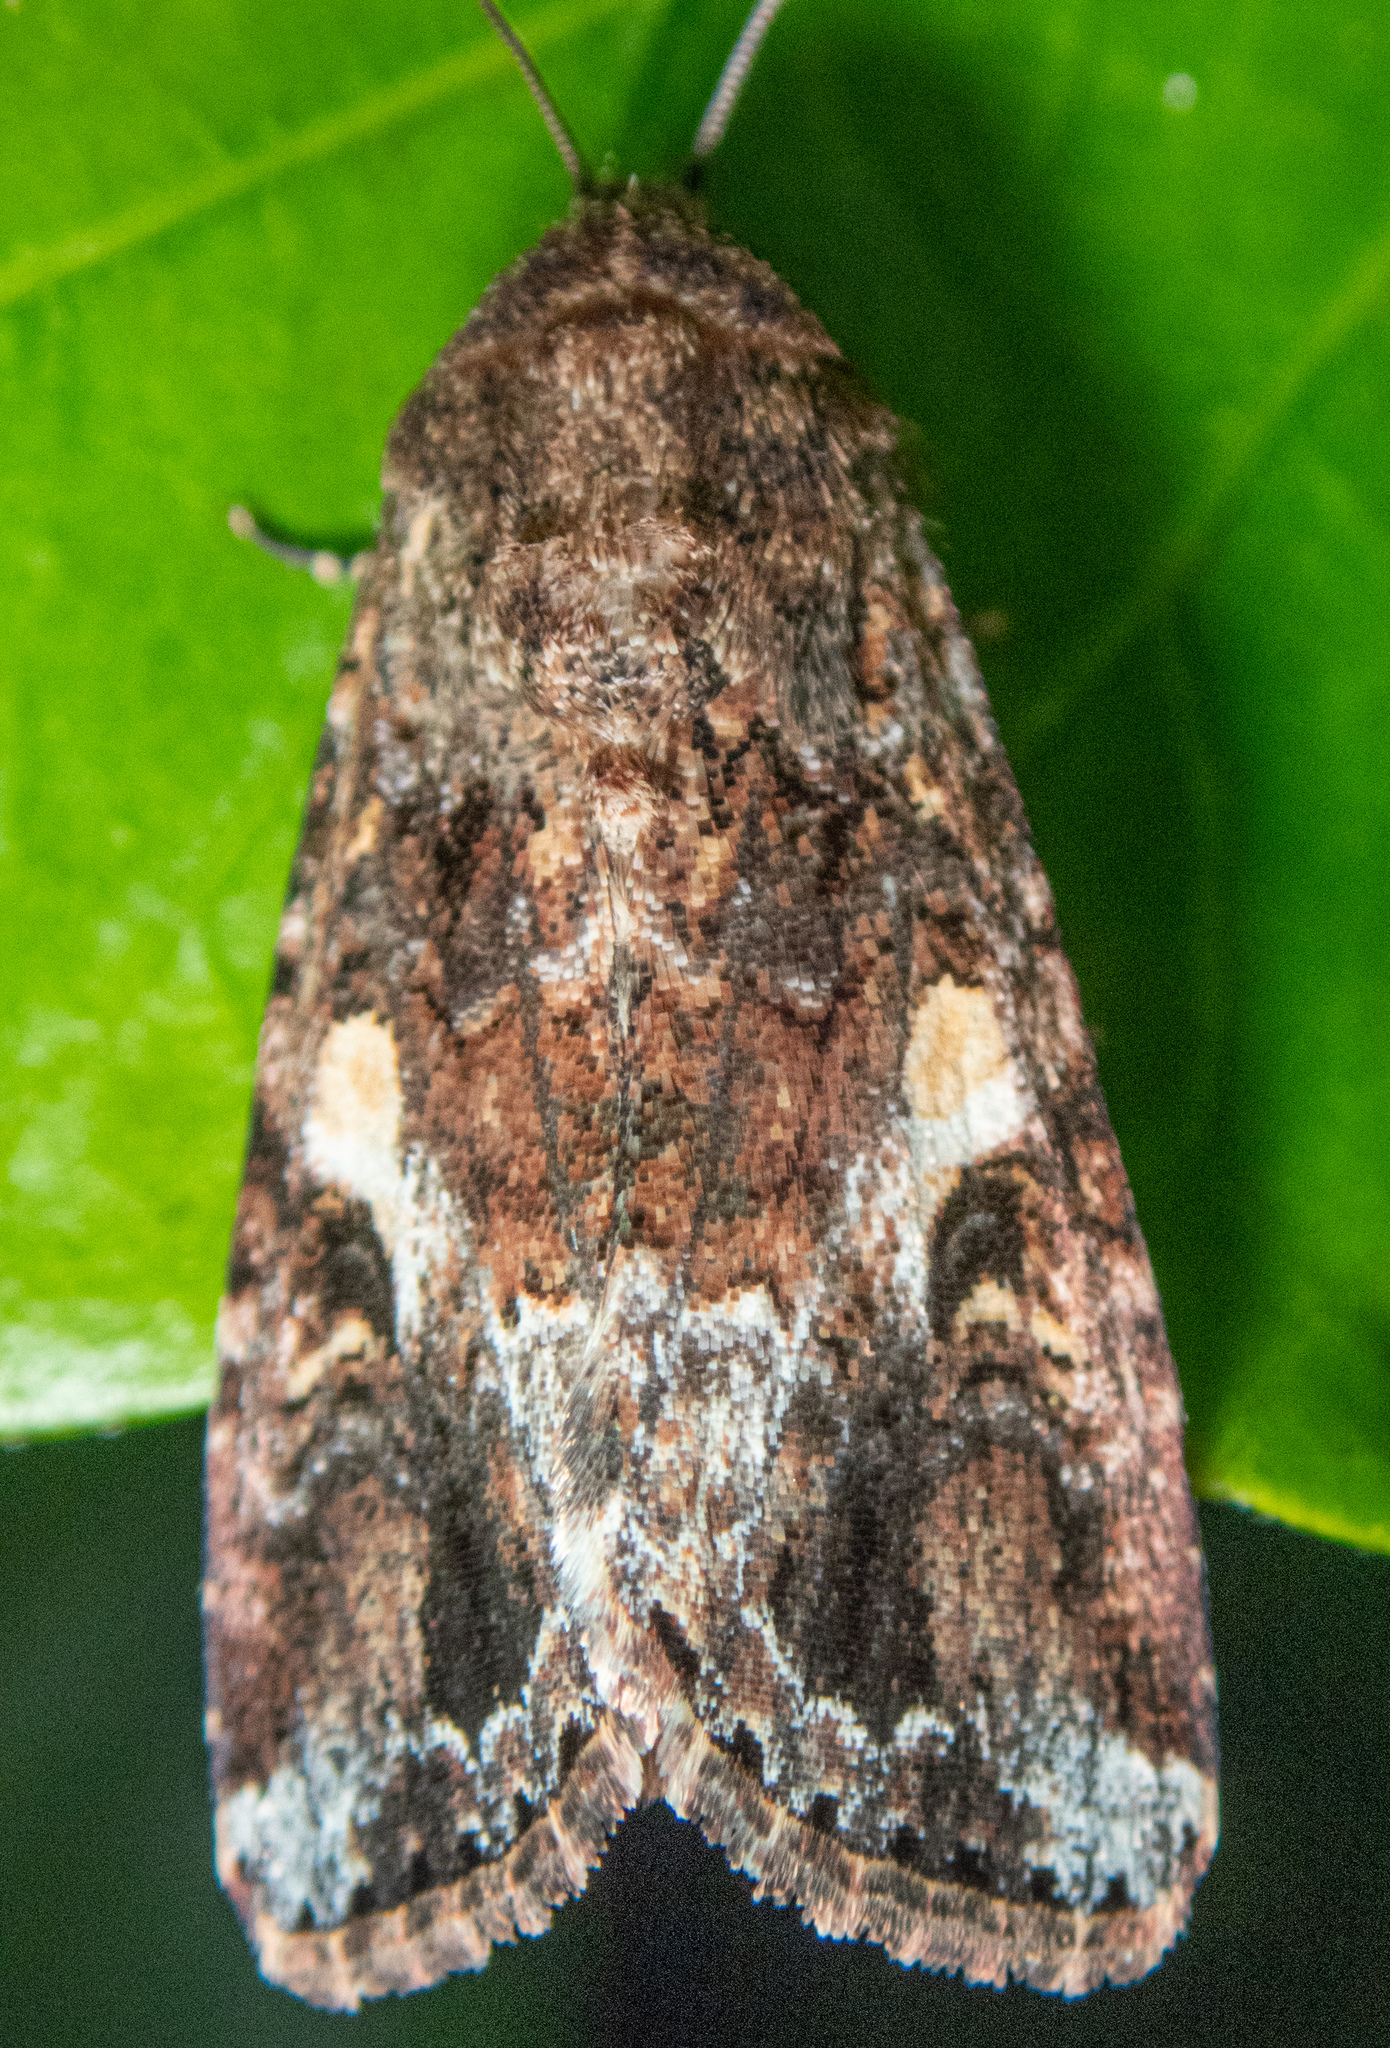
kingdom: Animalia
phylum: Arthropoda
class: Insecta
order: Lepidoptera
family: Noctuidae
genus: Spodoptera
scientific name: Spodoptera mauritia
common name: Lawn armyworm
